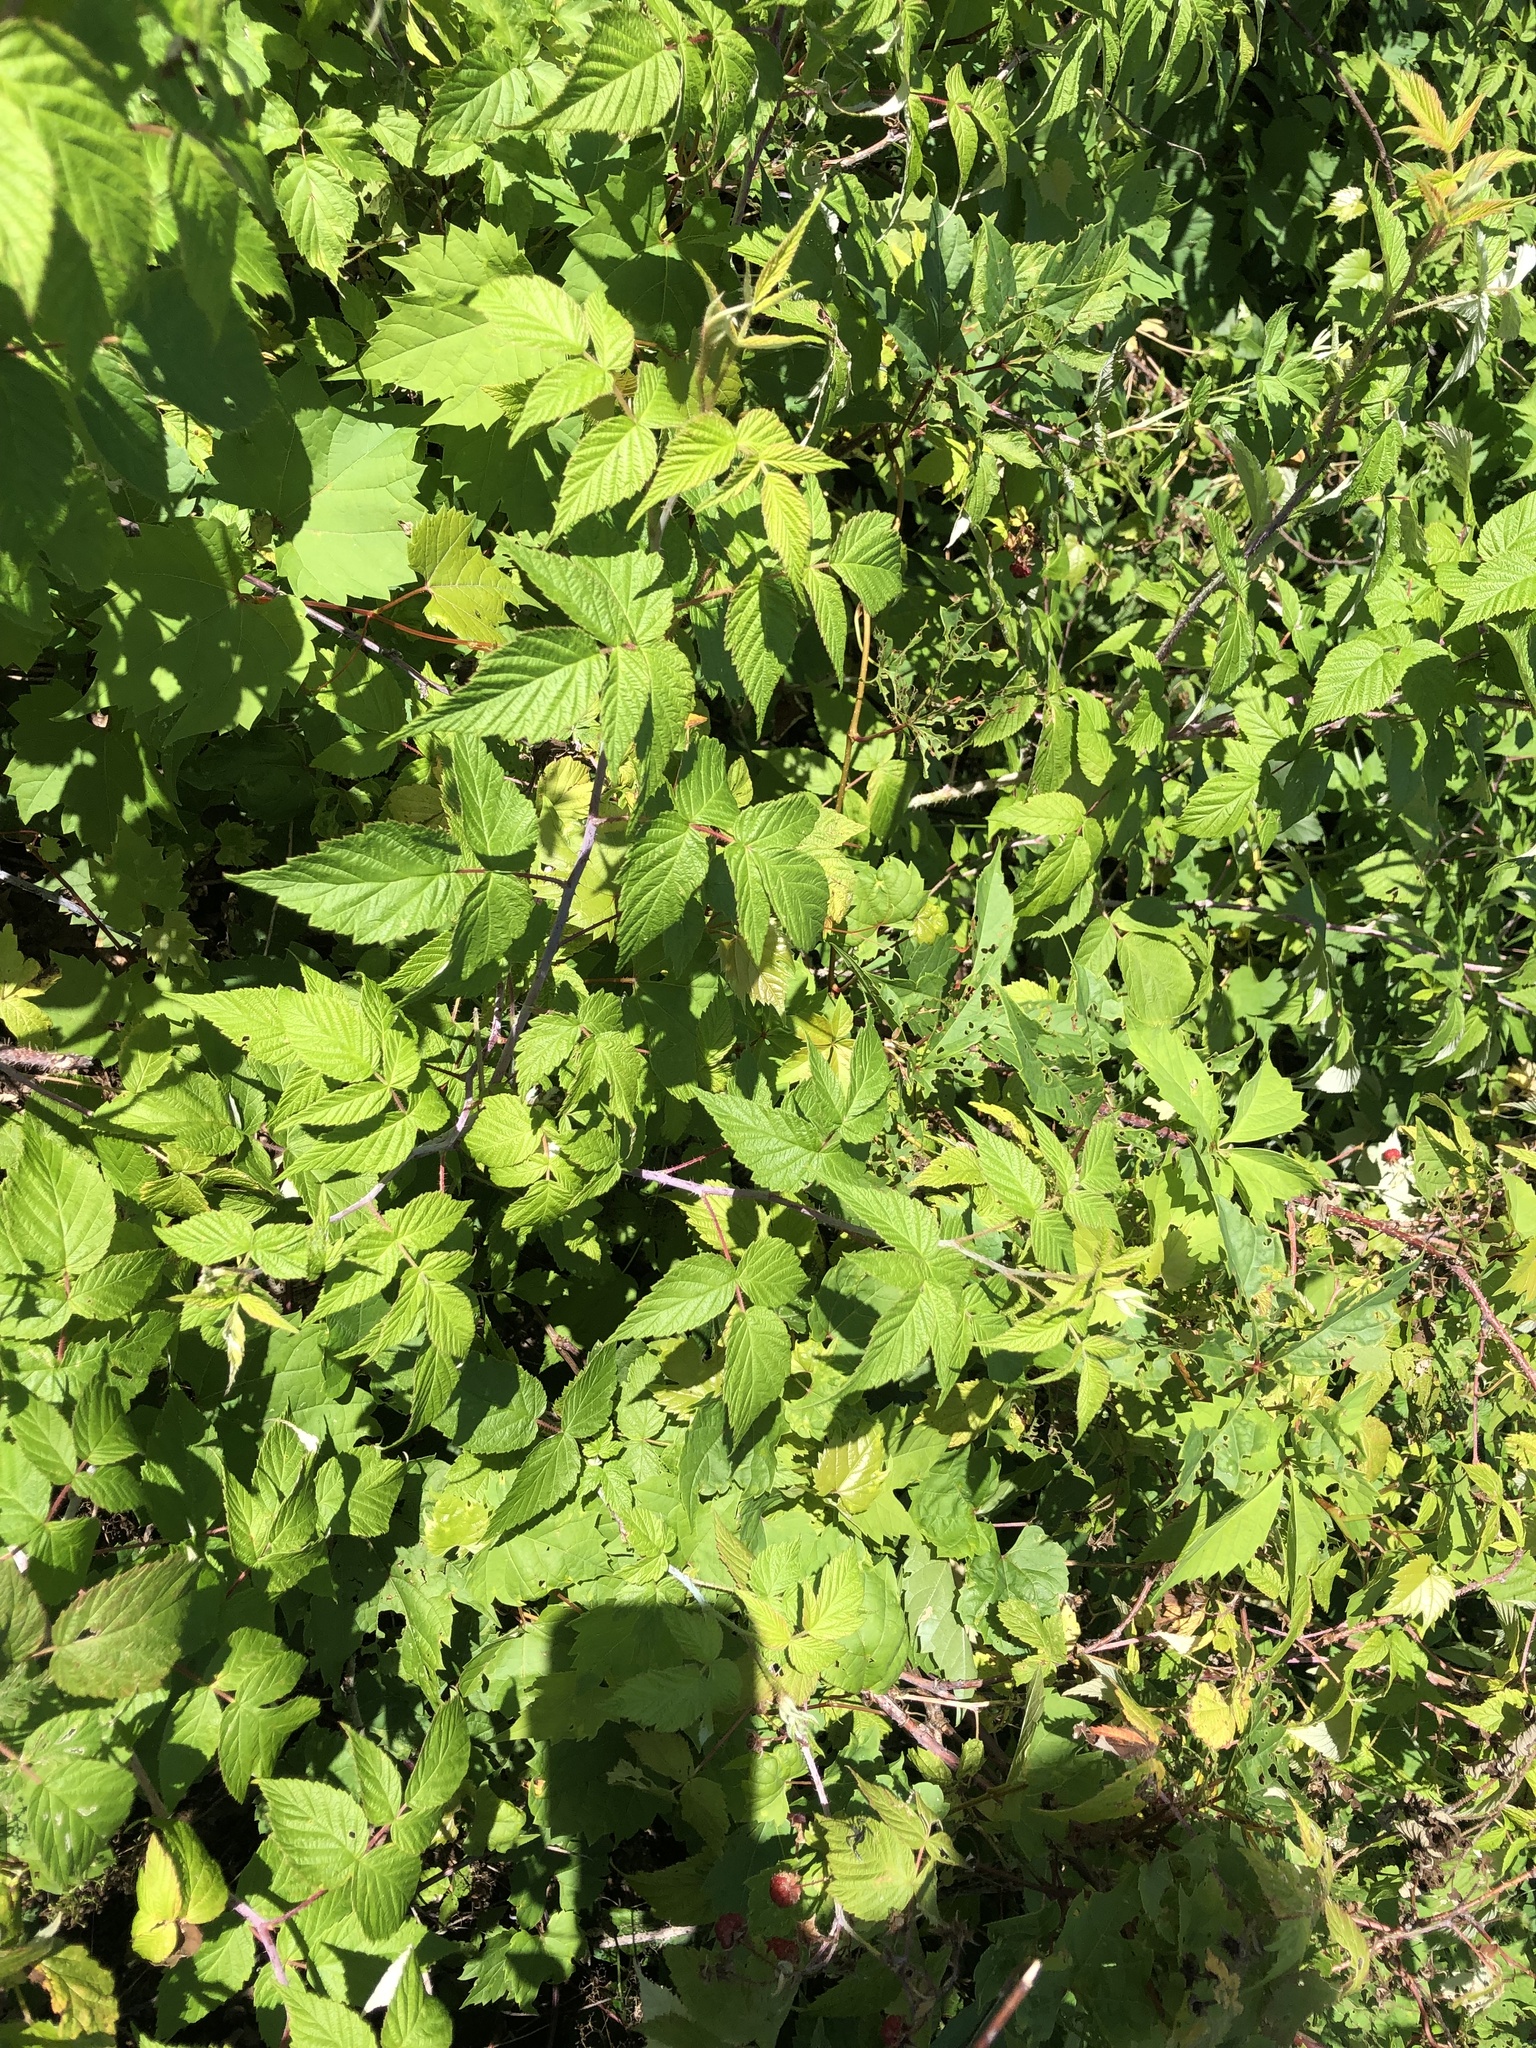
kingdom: Plantae
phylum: Tracheophyta
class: Magnoliopsida
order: Rosales
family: Rosaceae
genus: Rubus
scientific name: Rubus idaeus
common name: Raspberry
